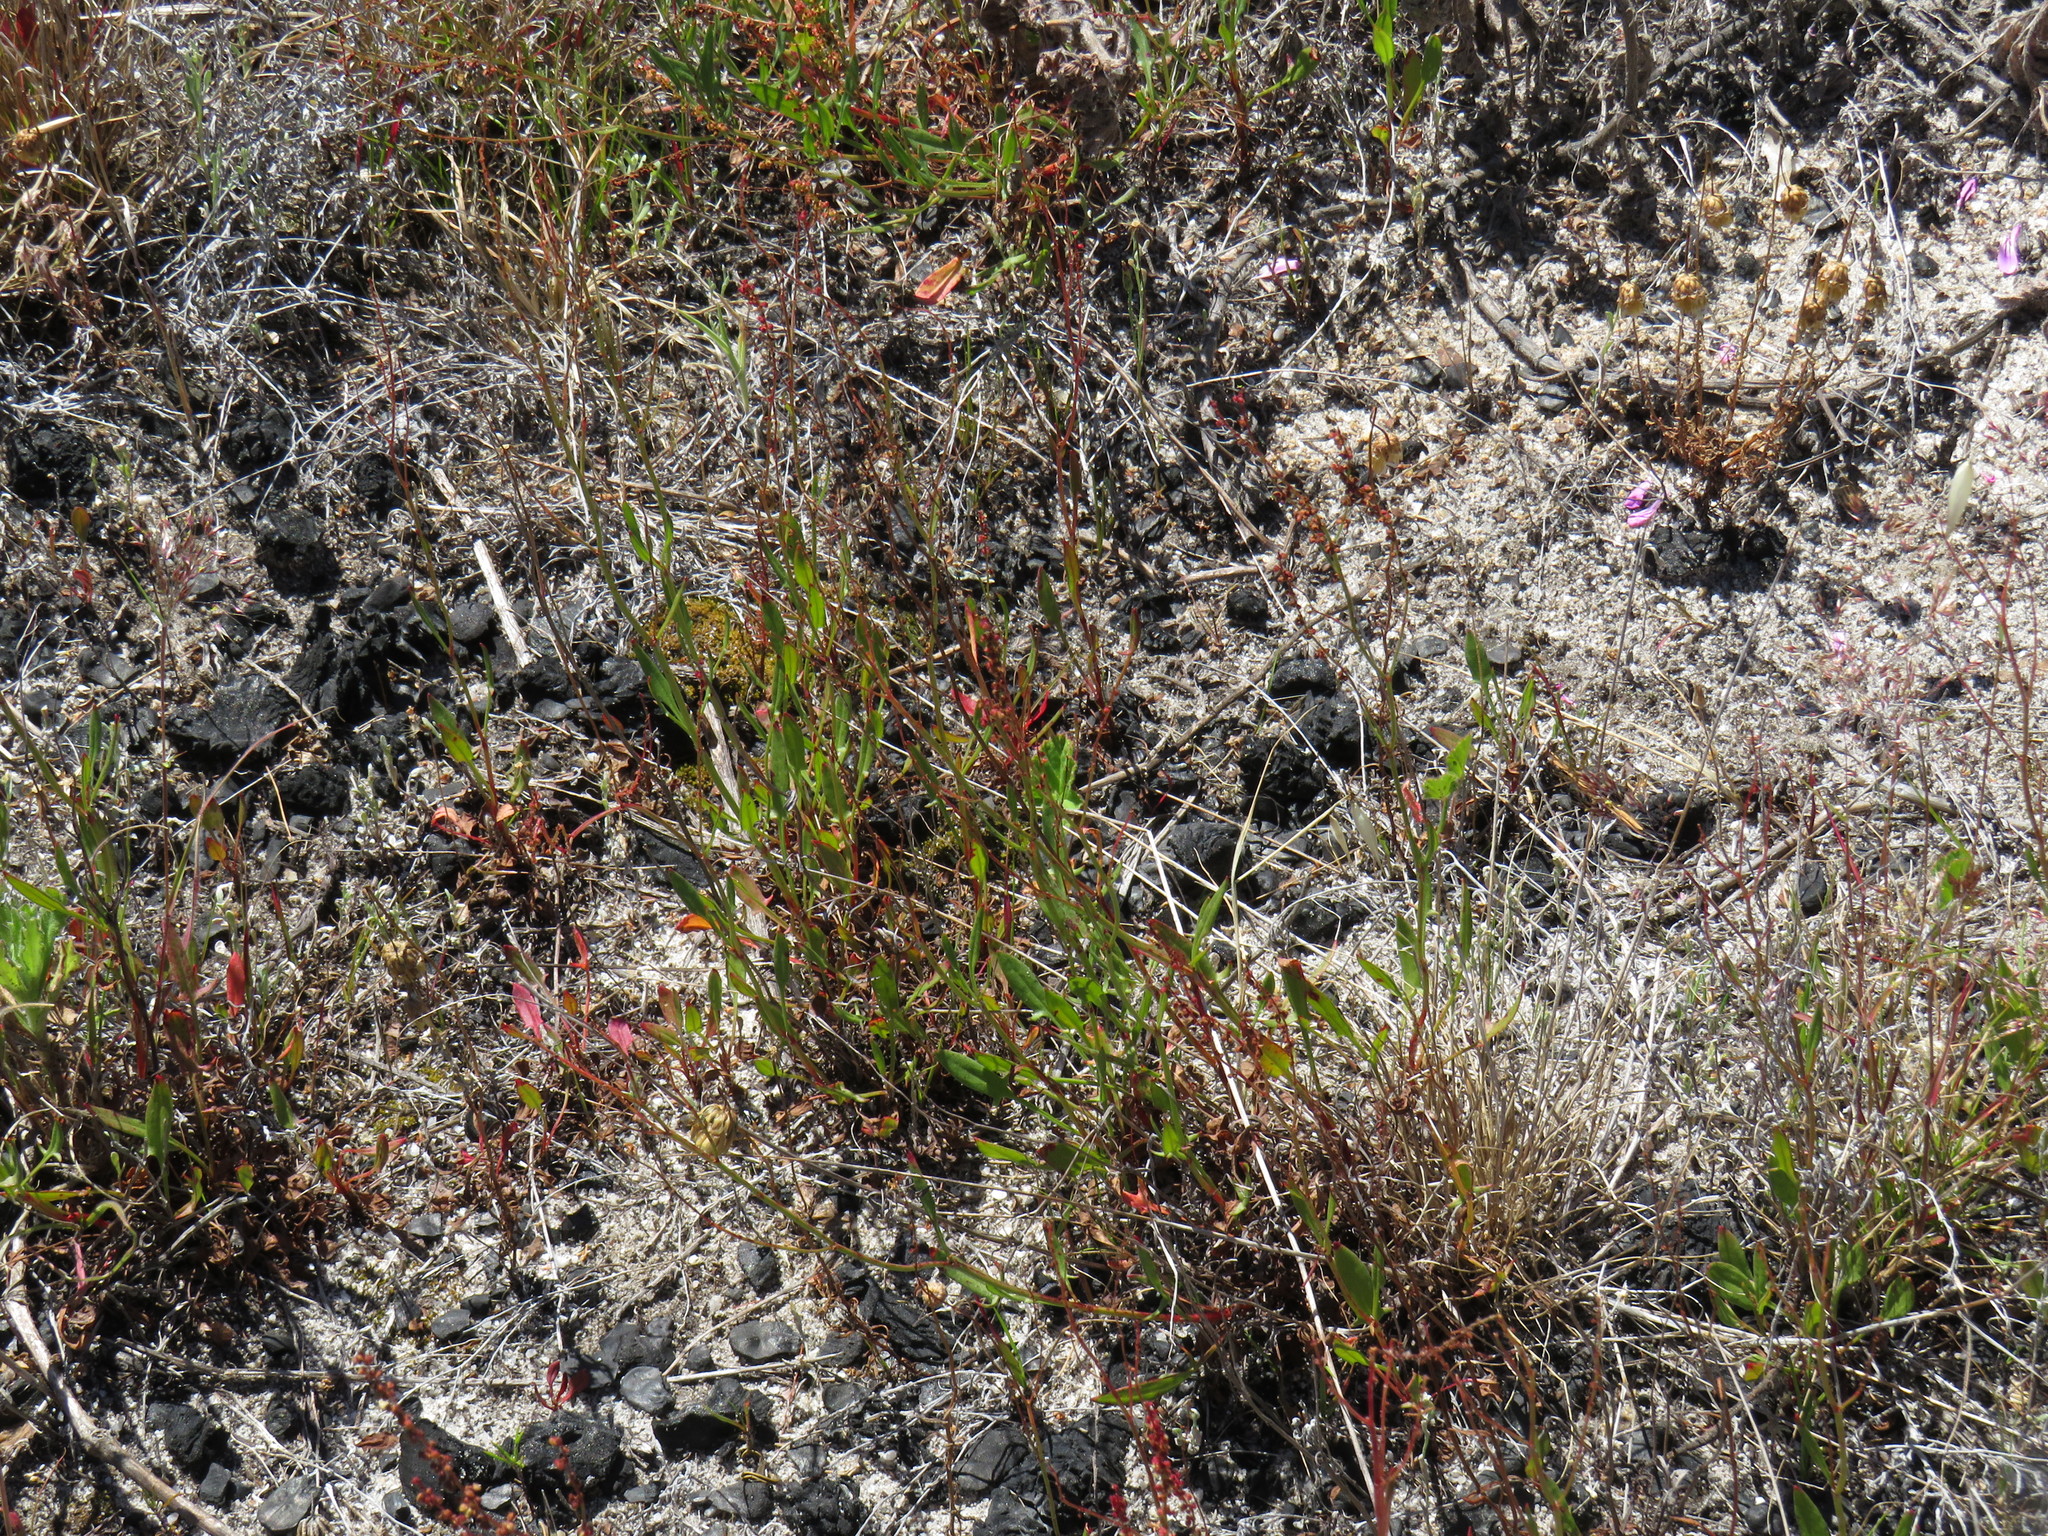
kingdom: Plantae
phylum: Tracheophyta
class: Magnoliopsida
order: Caryophyllales
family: Polygonaceae
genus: Rumex
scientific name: Rumex acetosella
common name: Common sheep sorrel
